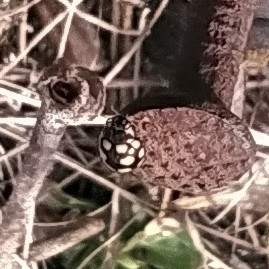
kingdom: Animalia
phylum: Arthropoda
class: Insecta
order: Coleoptera
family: Coccinellidae
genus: Coccinula
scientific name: Coccinula quatuordecimpustulata
